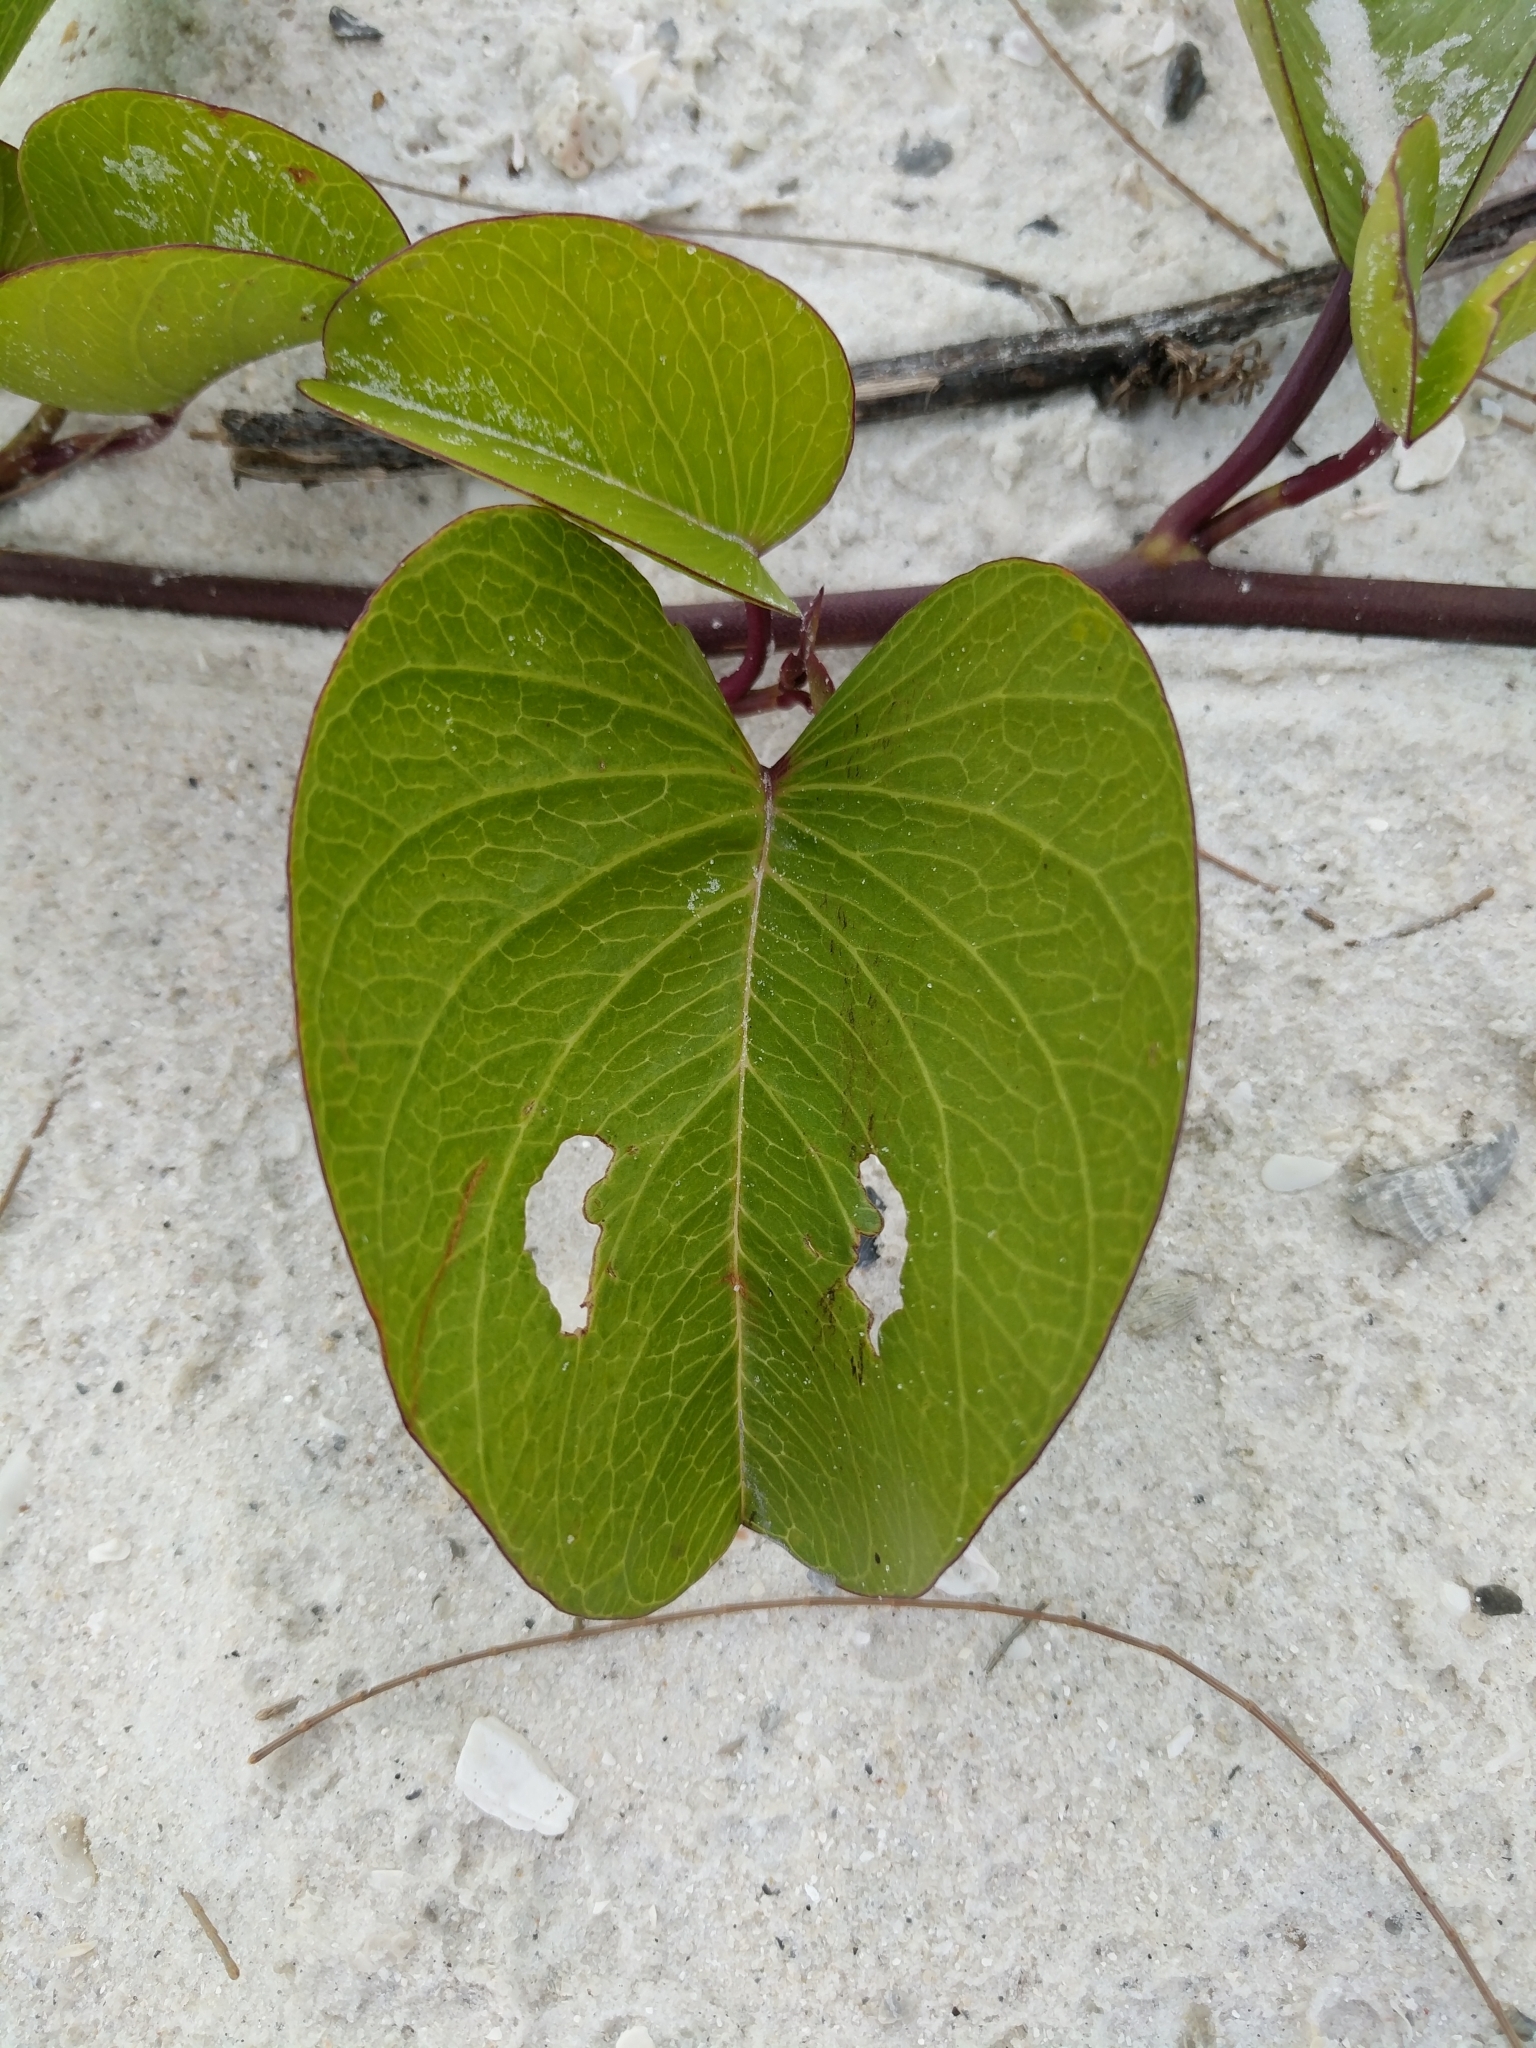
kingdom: Plantae
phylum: Tracheophyta
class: Magnoliopsida
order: Solanales
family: Convolvulaceae
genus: Ipomoea
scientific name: Ipomoea pes-caprae
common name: Beach morning glory
